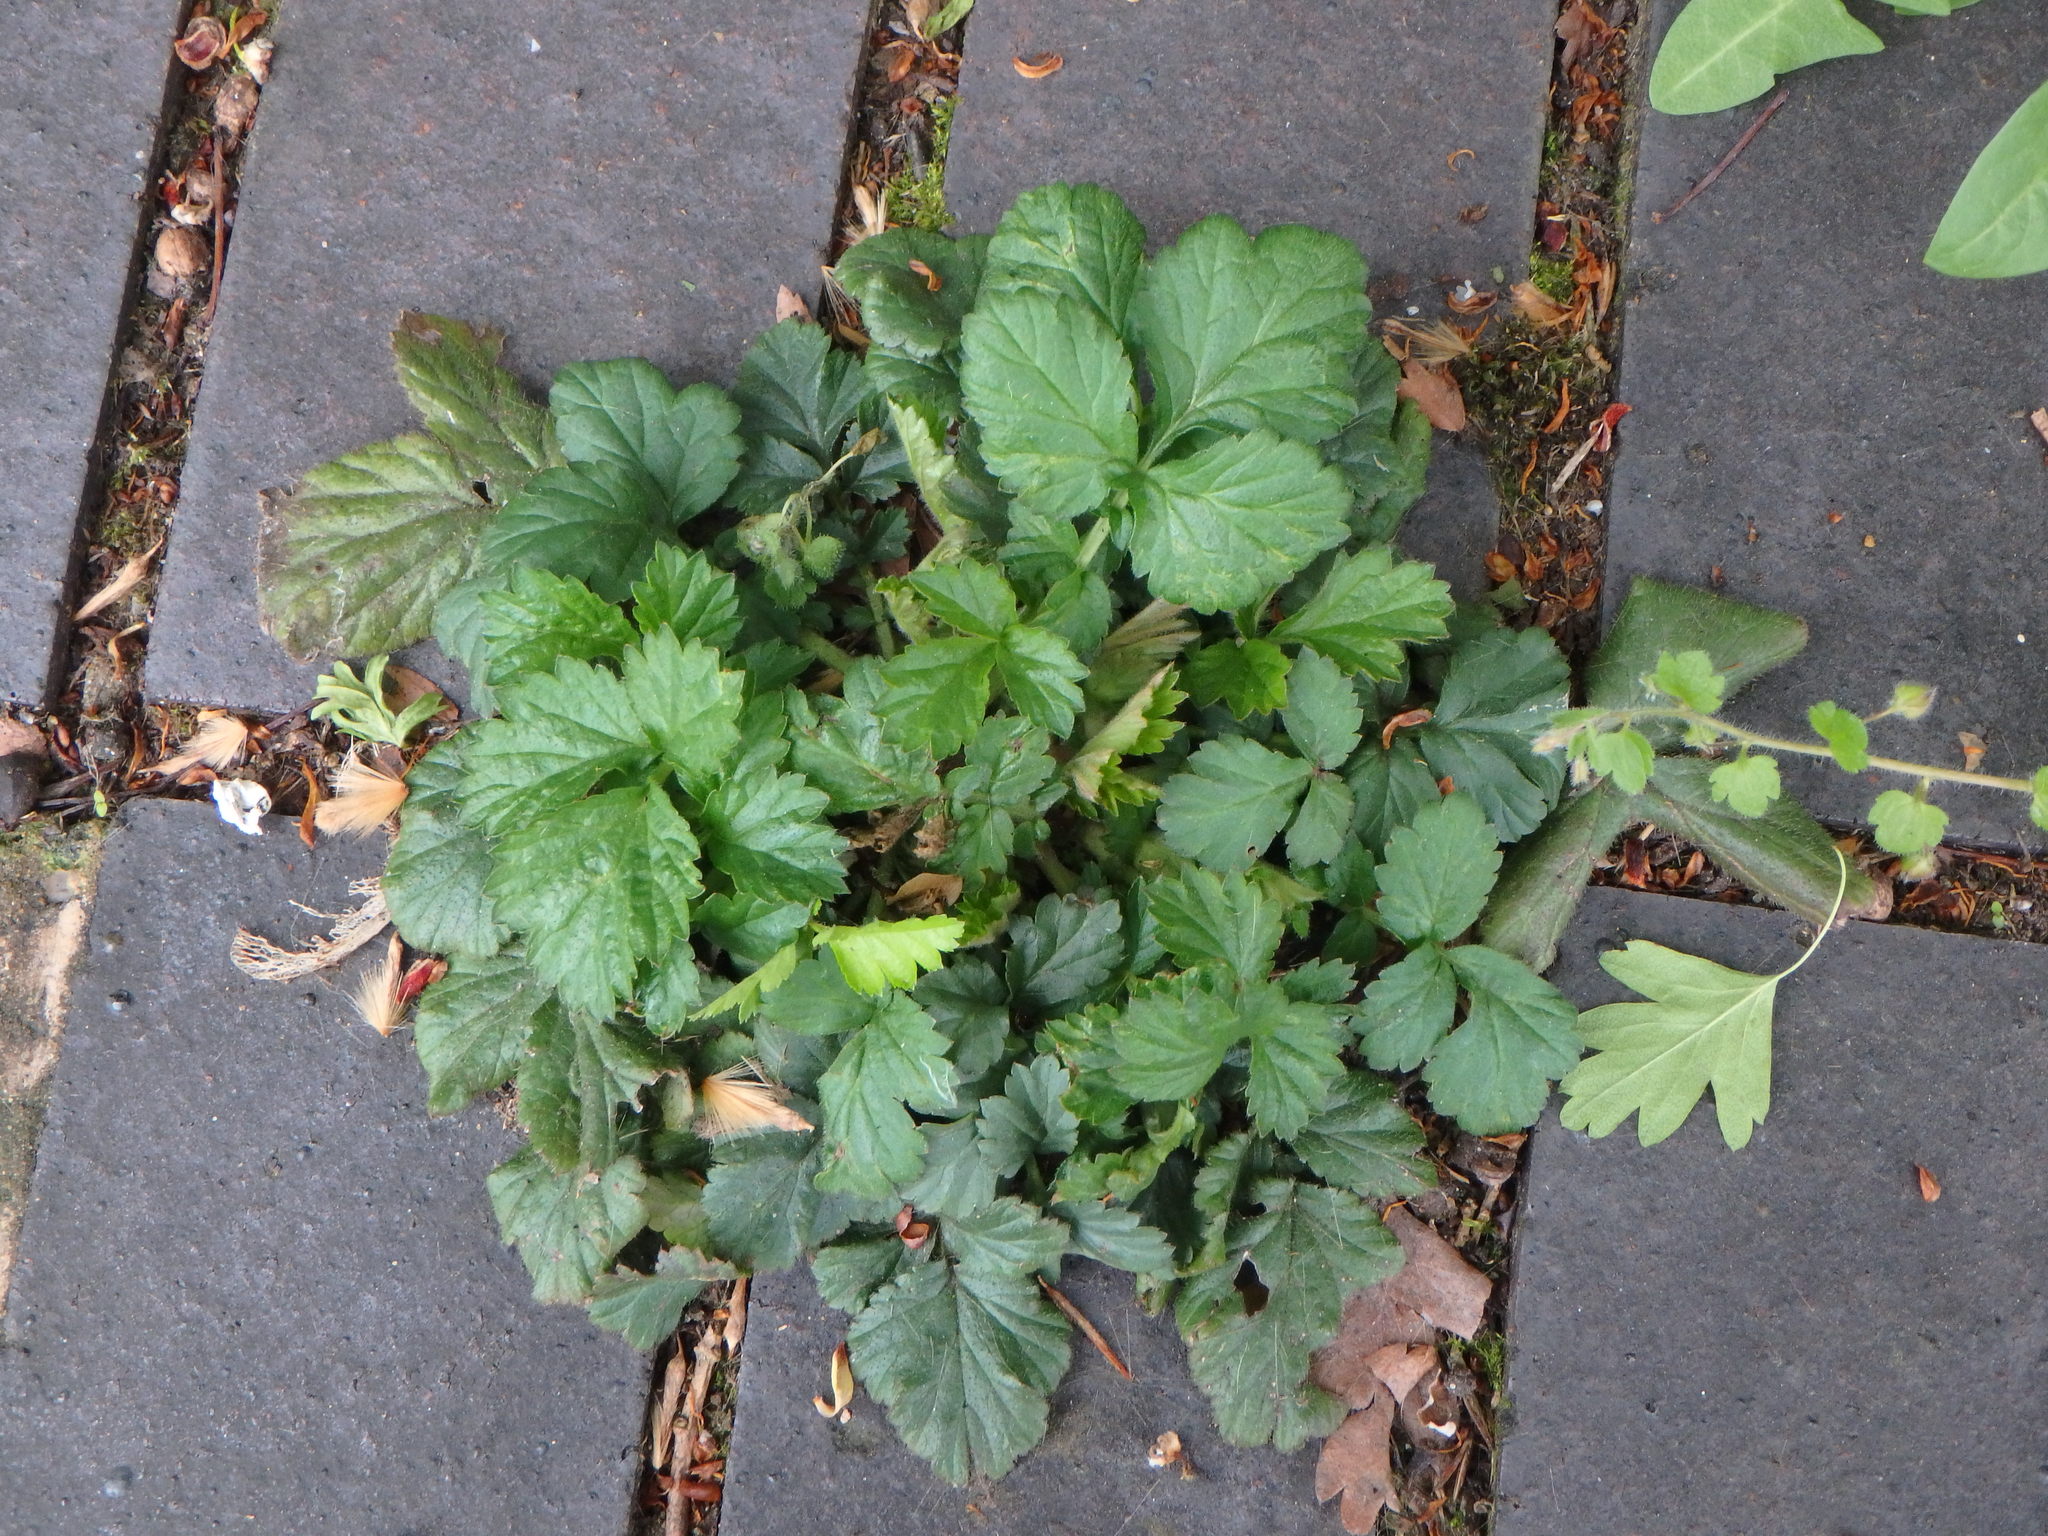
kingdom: Plantae
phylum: Tracheophyta
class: Magnoliopsida
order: Rosales
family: Rosaceae
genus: Geum
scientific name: Geum urbanum
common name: Wood avens
